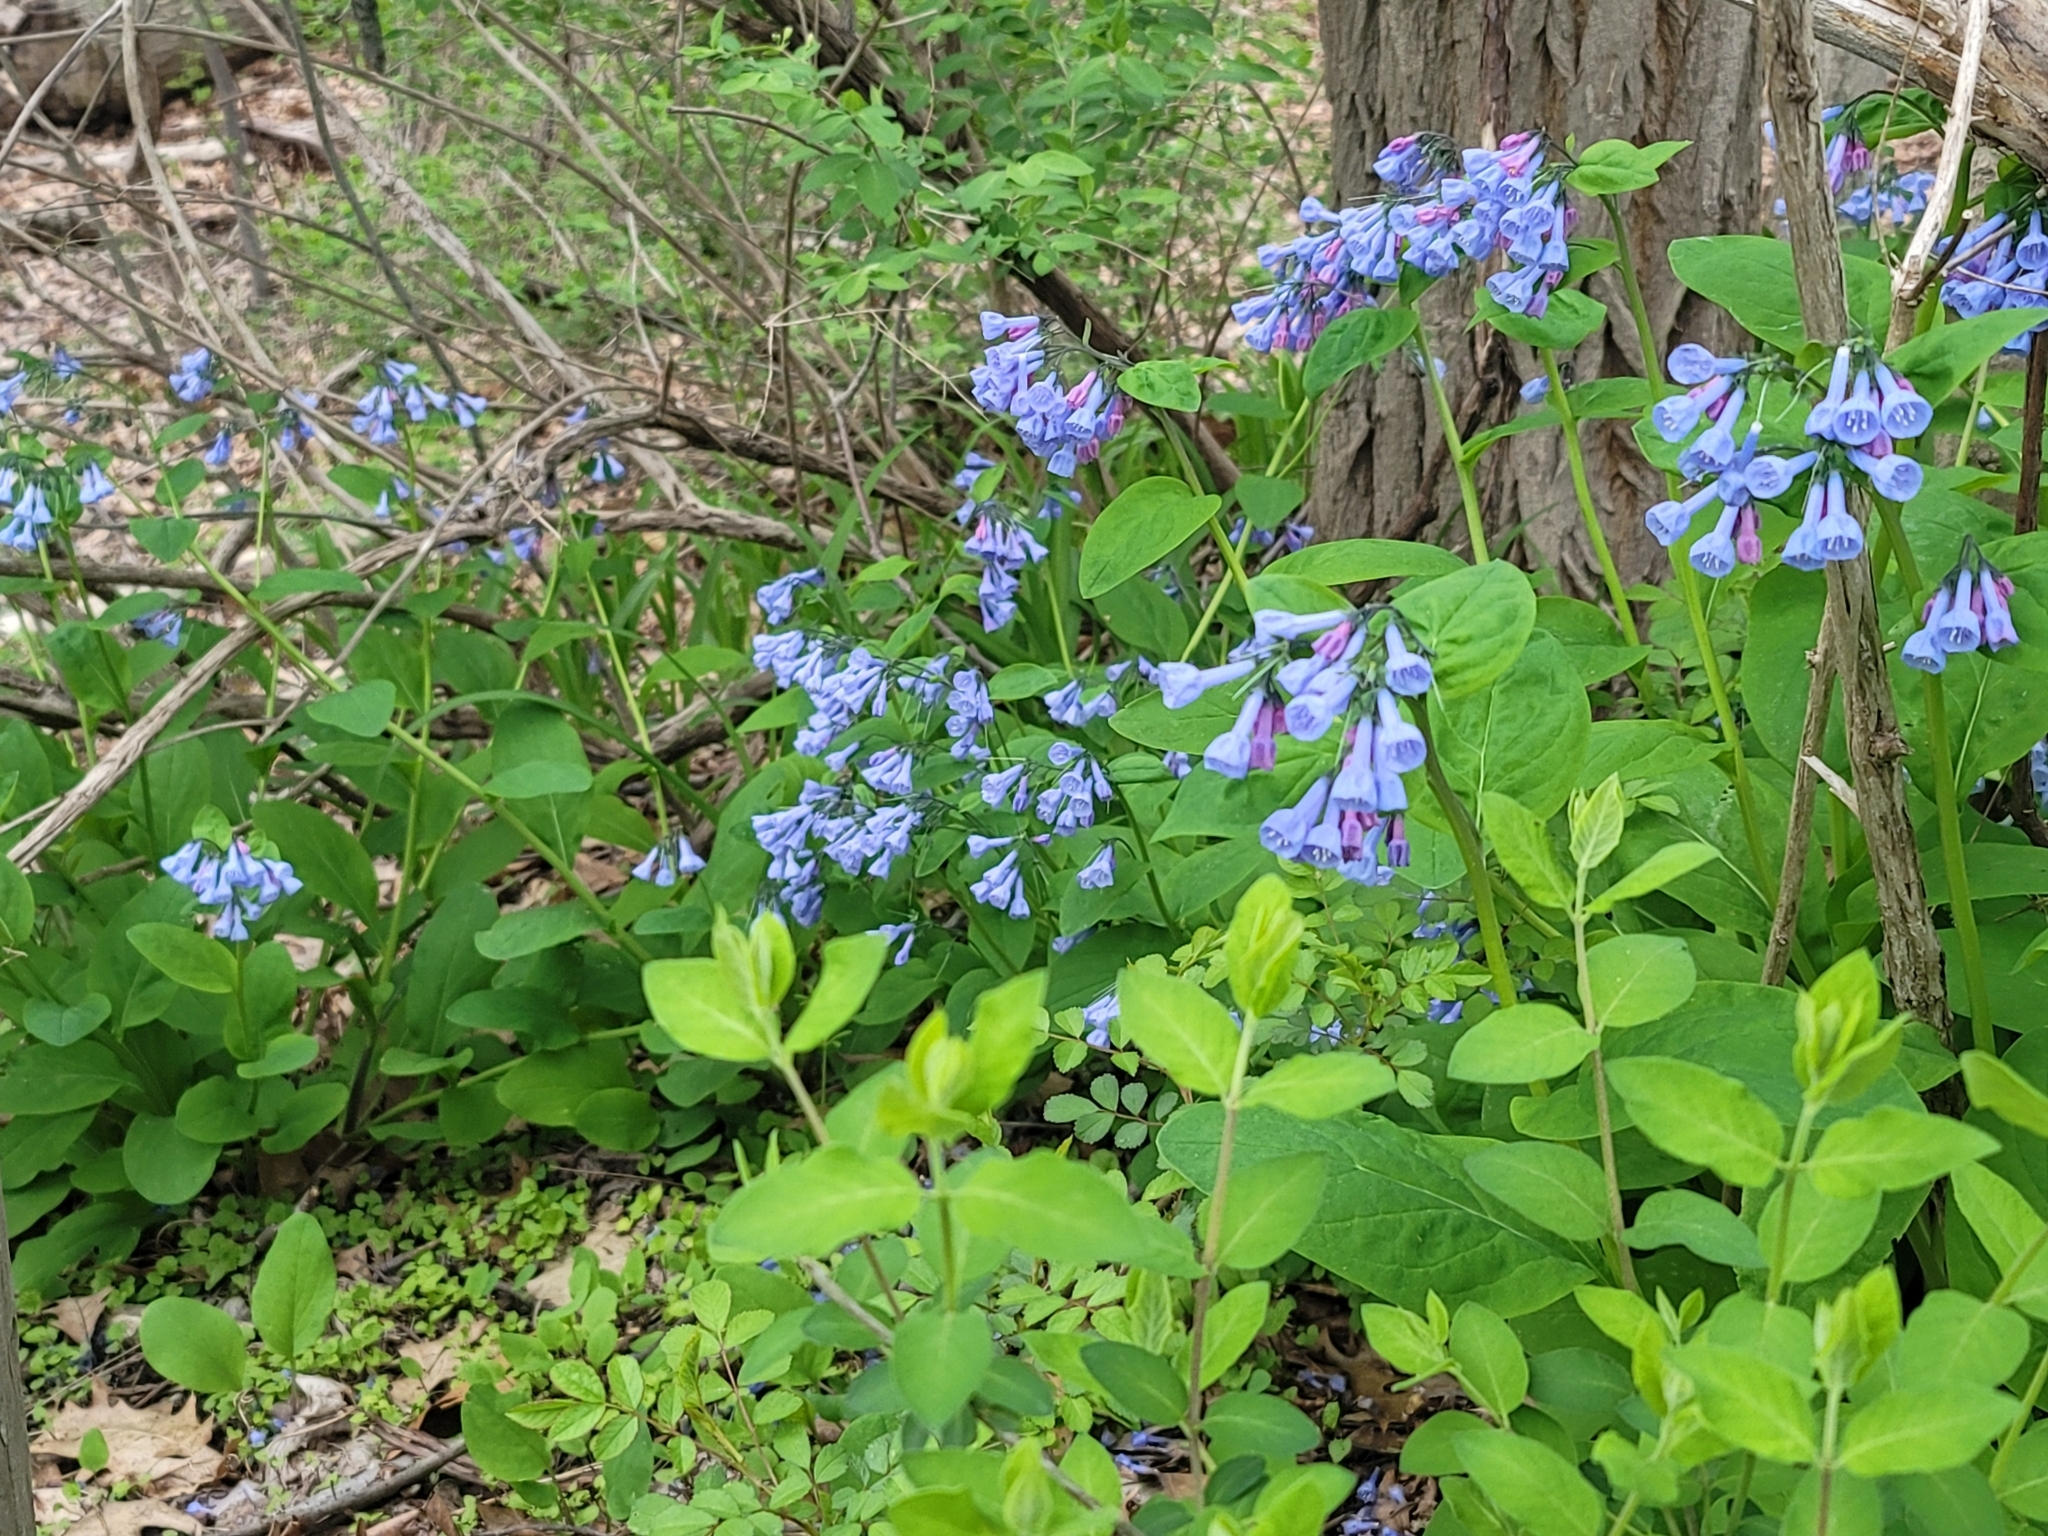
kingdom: Plantae
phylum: Tracheophyta
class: Magnoliopsida
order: Boraginales
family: Boraginaceae
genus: Mertensia
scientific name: Mertensia virginica
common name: Virginia bluebells
